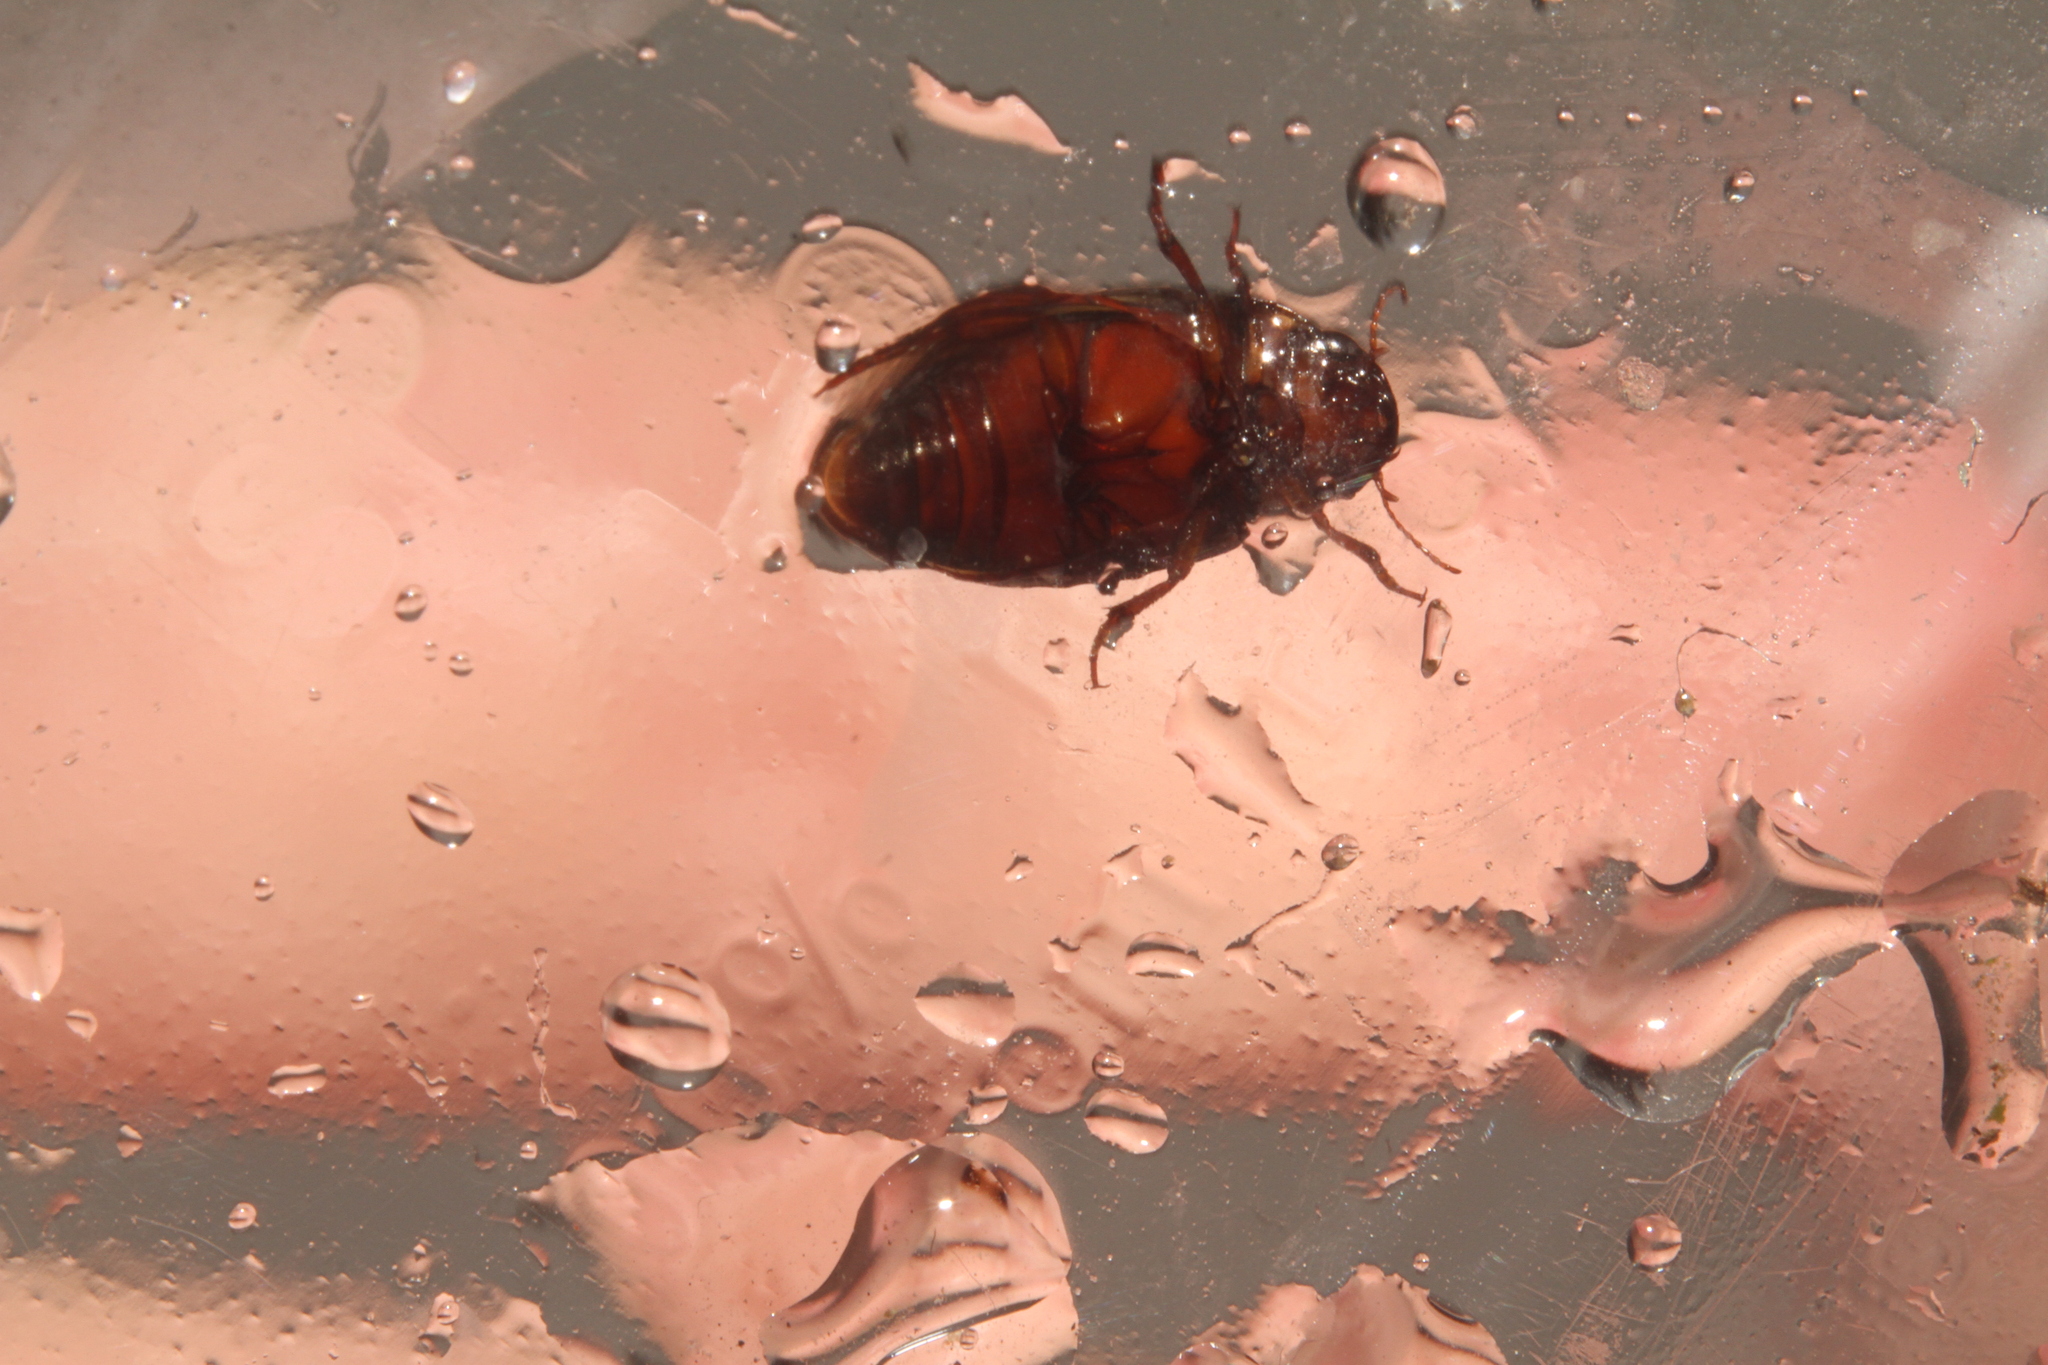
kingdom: Animalia
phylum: Arthropoda
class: Insecta
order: Coleoptera
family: Dytiscidae
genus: Platambus
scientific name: Platambus maculatus
